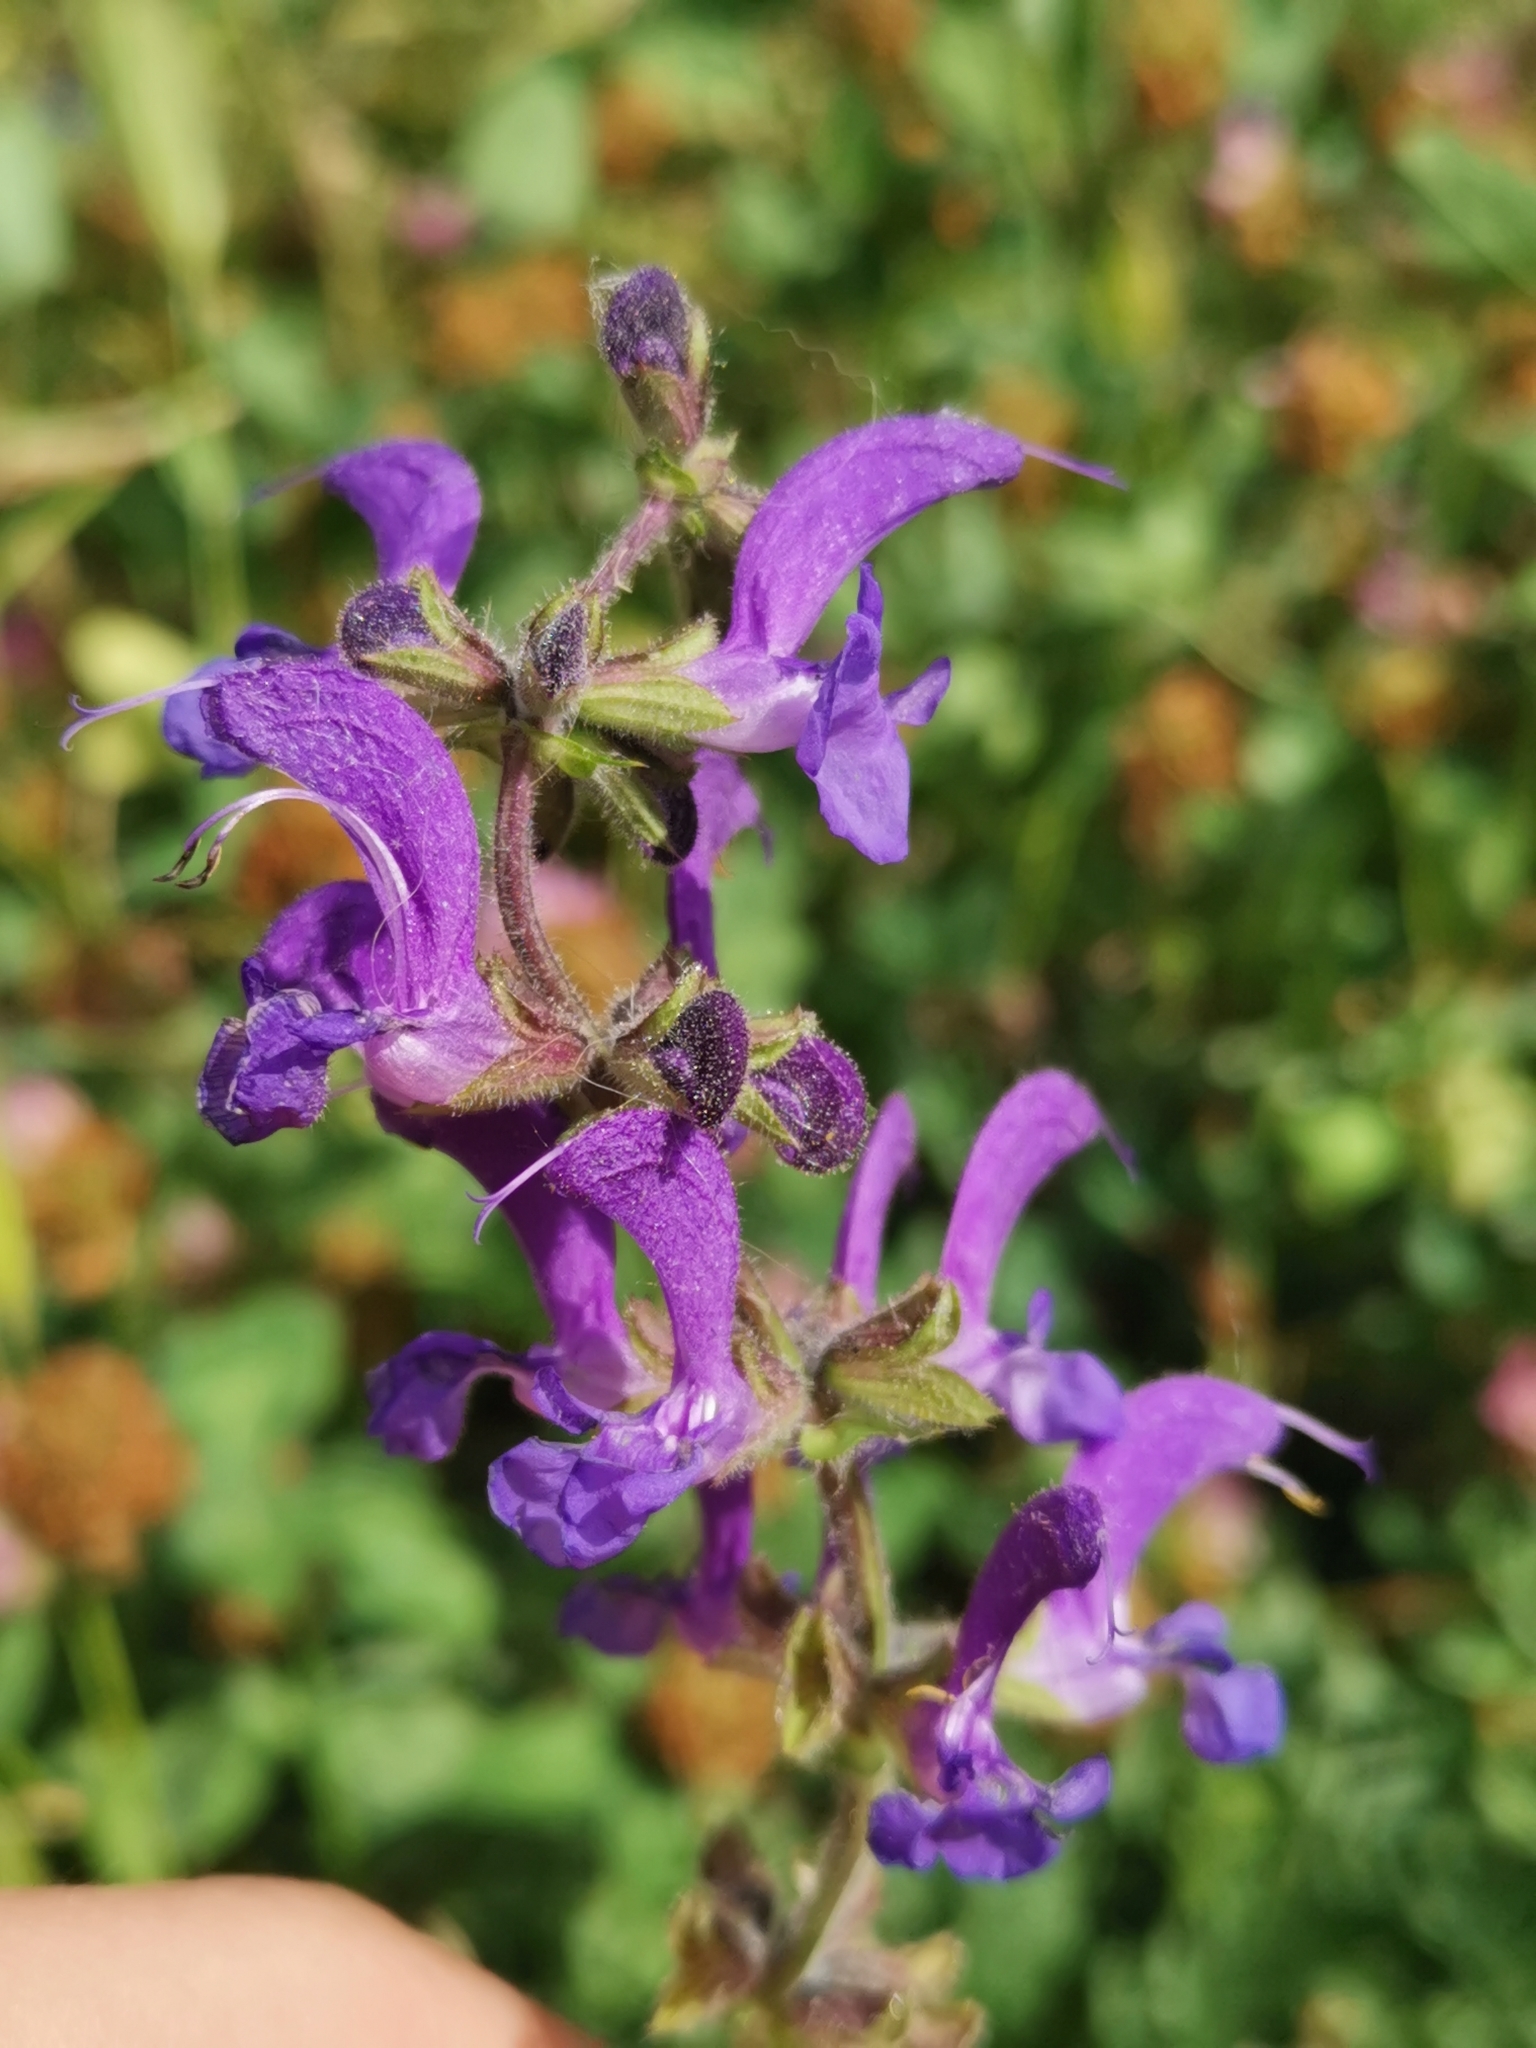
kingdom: Plantae
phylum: Tracheophyta
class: Magnoliopsida
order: Lamiales
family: Lamiaceae
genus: Salvia
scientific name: Salvia pratensis
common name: Meadow sage
